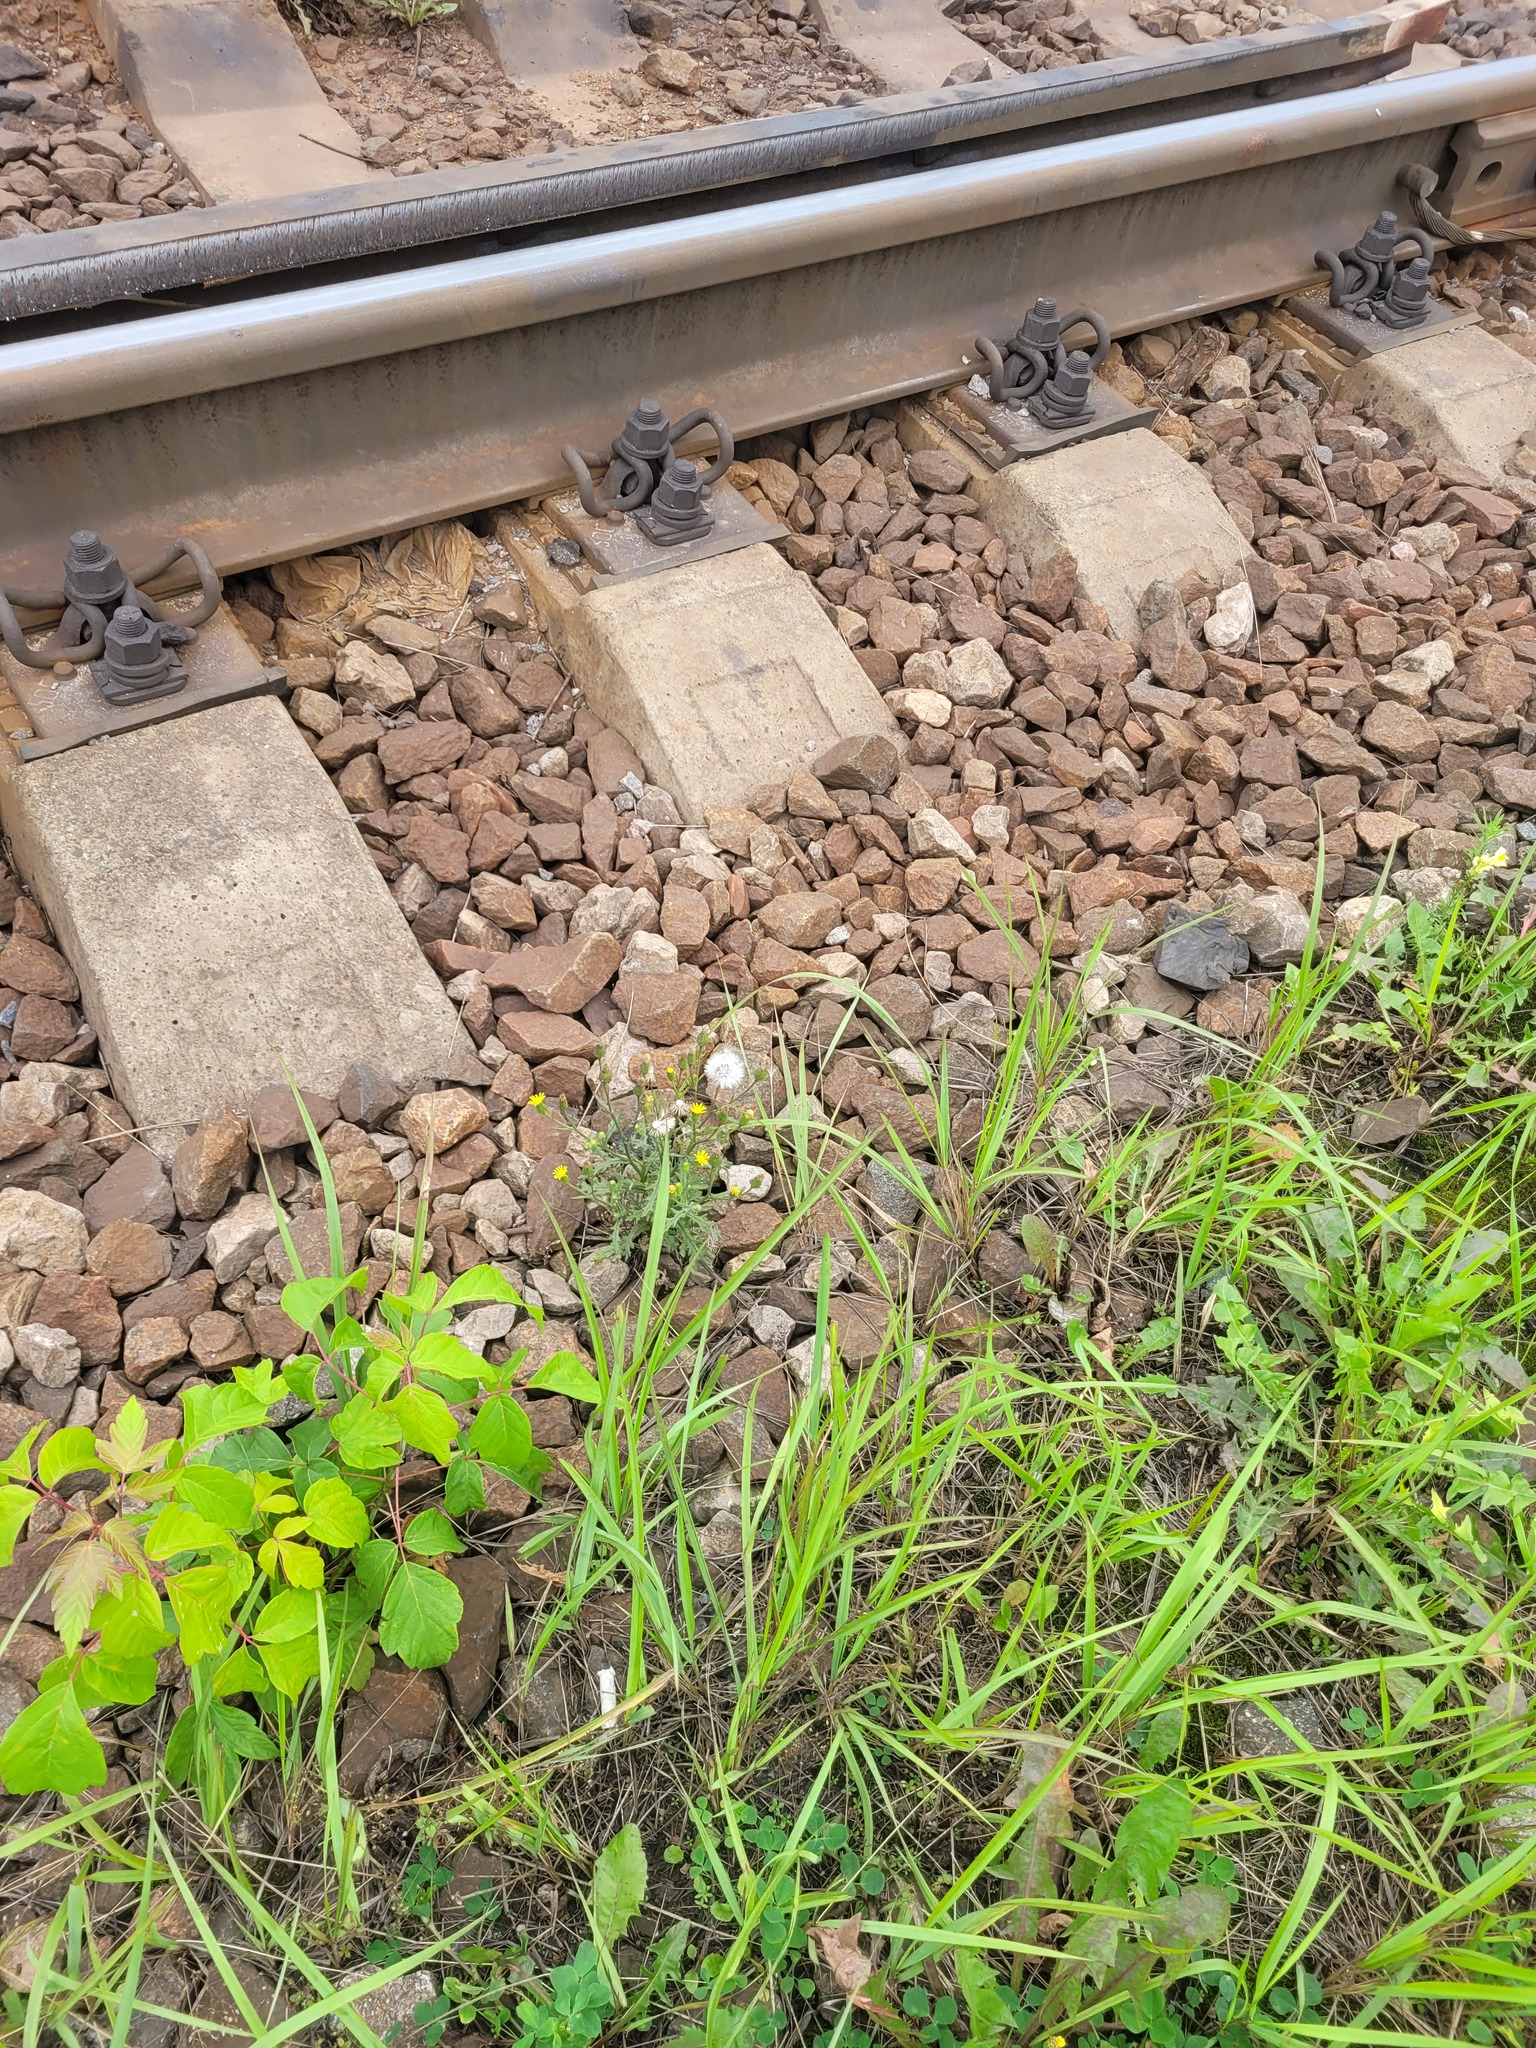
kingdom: Plantae
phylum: Tracheophyta
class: Magnoliopsida
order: Asterales
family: Asteraceae
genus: Senecio
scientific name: Senecio viscosus
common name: Sticky groundsel
